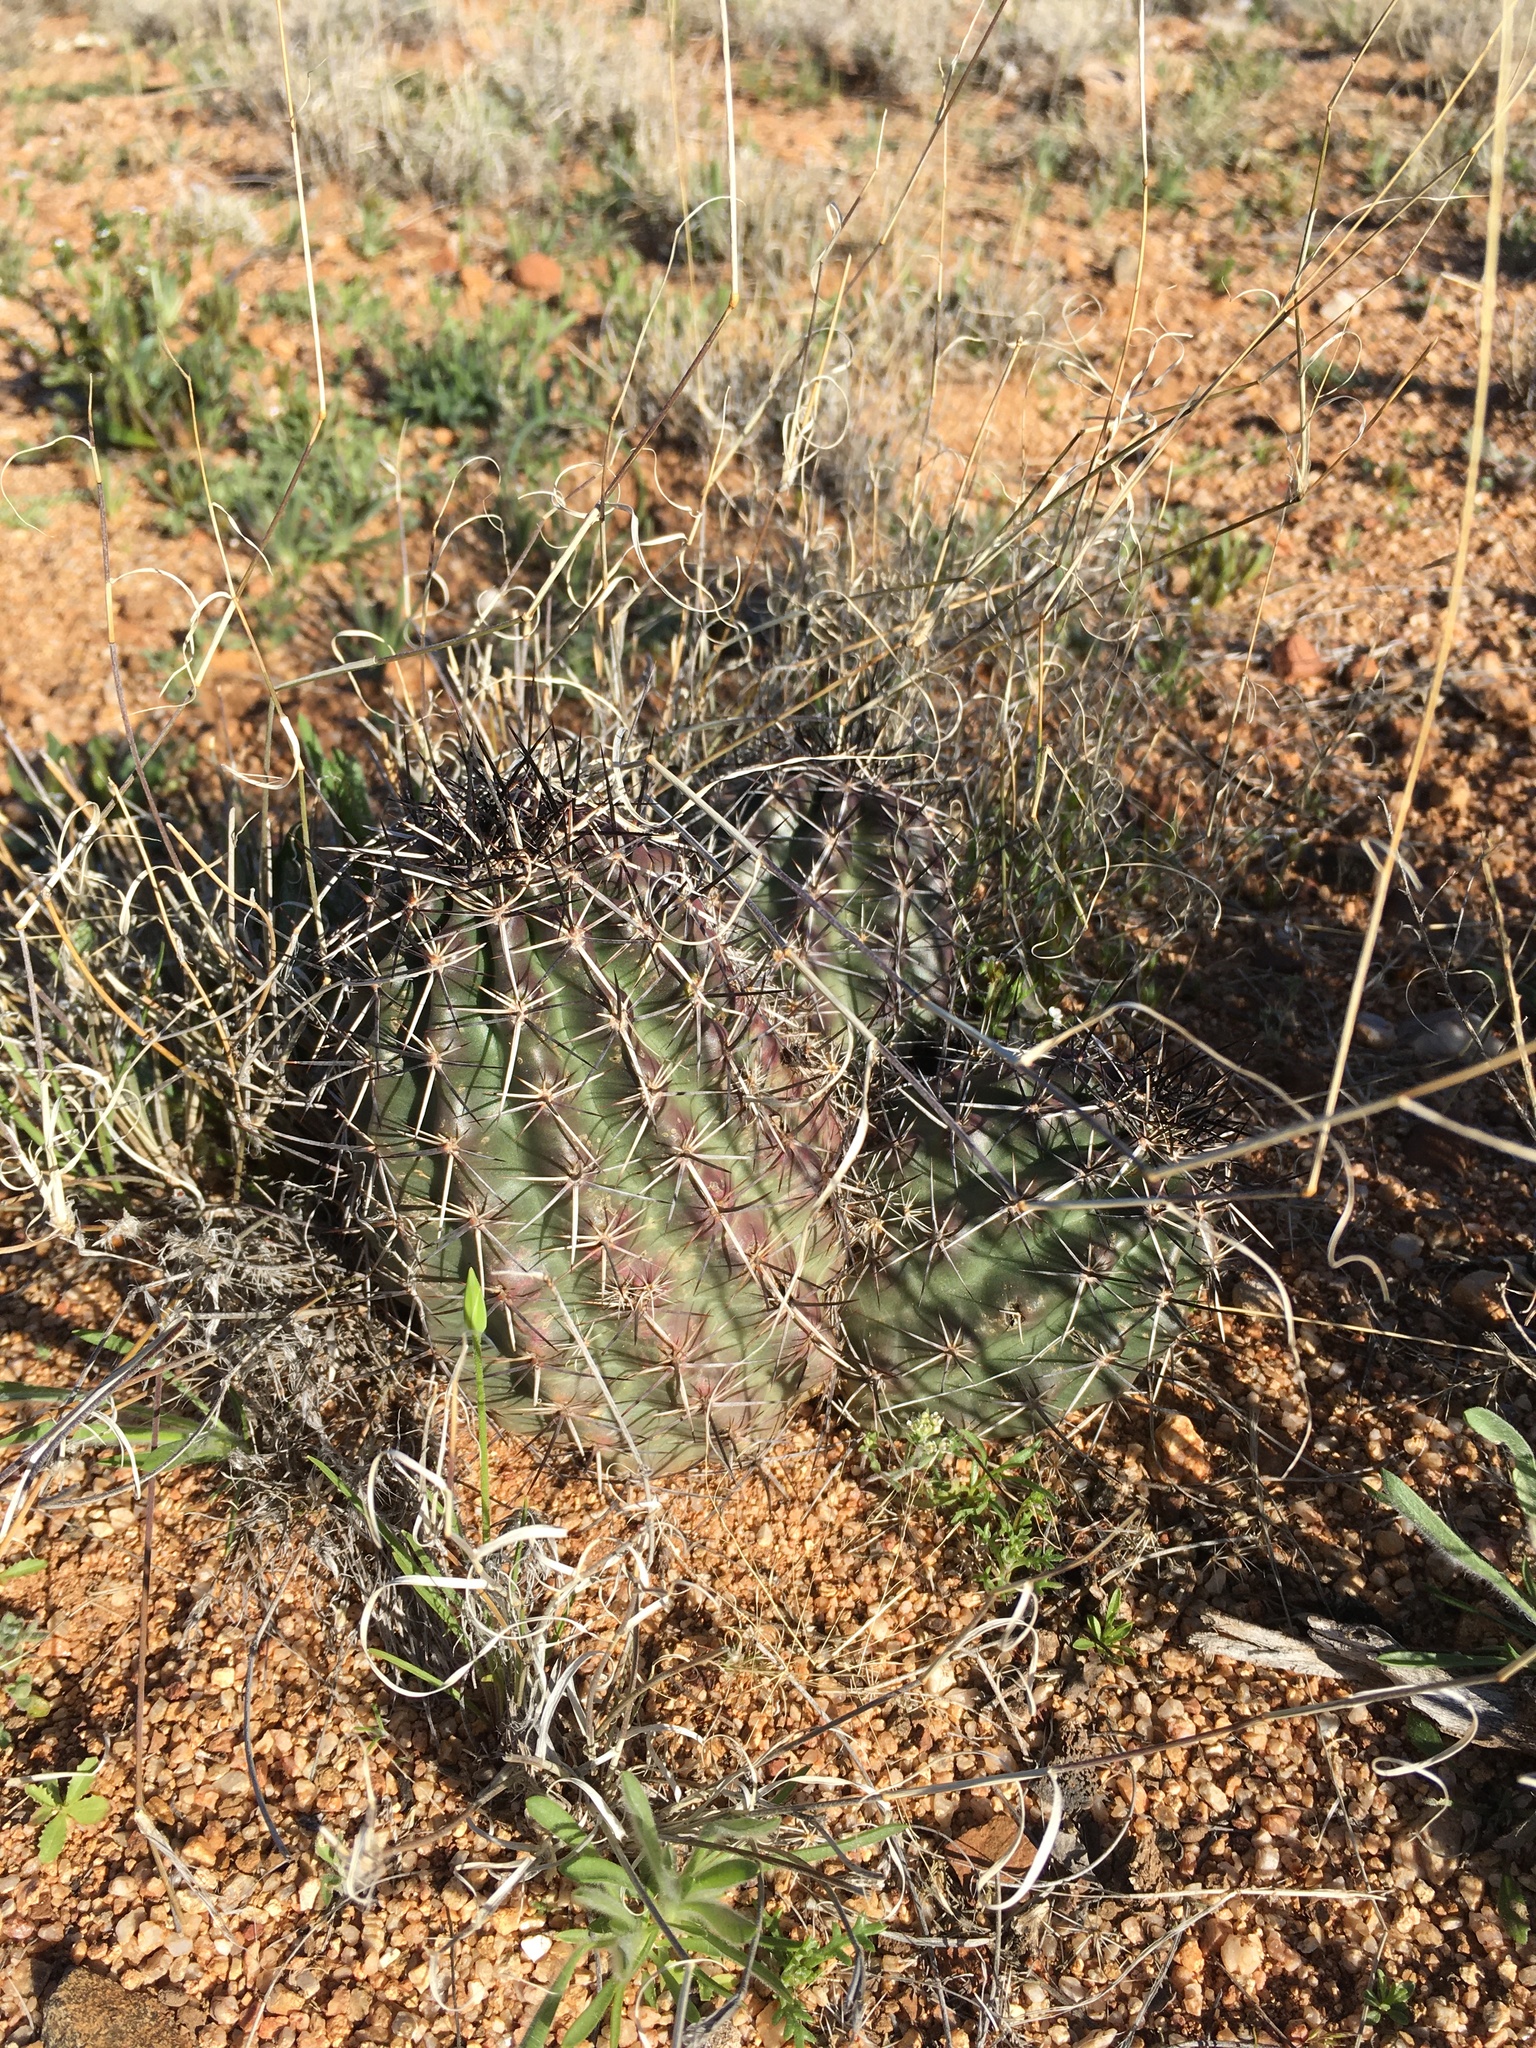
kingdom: Plantae
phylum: Tracheophyta
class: Magnoliopsida
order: Caryophyllales
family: Cactaceae
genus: Echinocereus
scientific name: Echinocereus fendleri
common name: Fendler's hedgehog cactus
